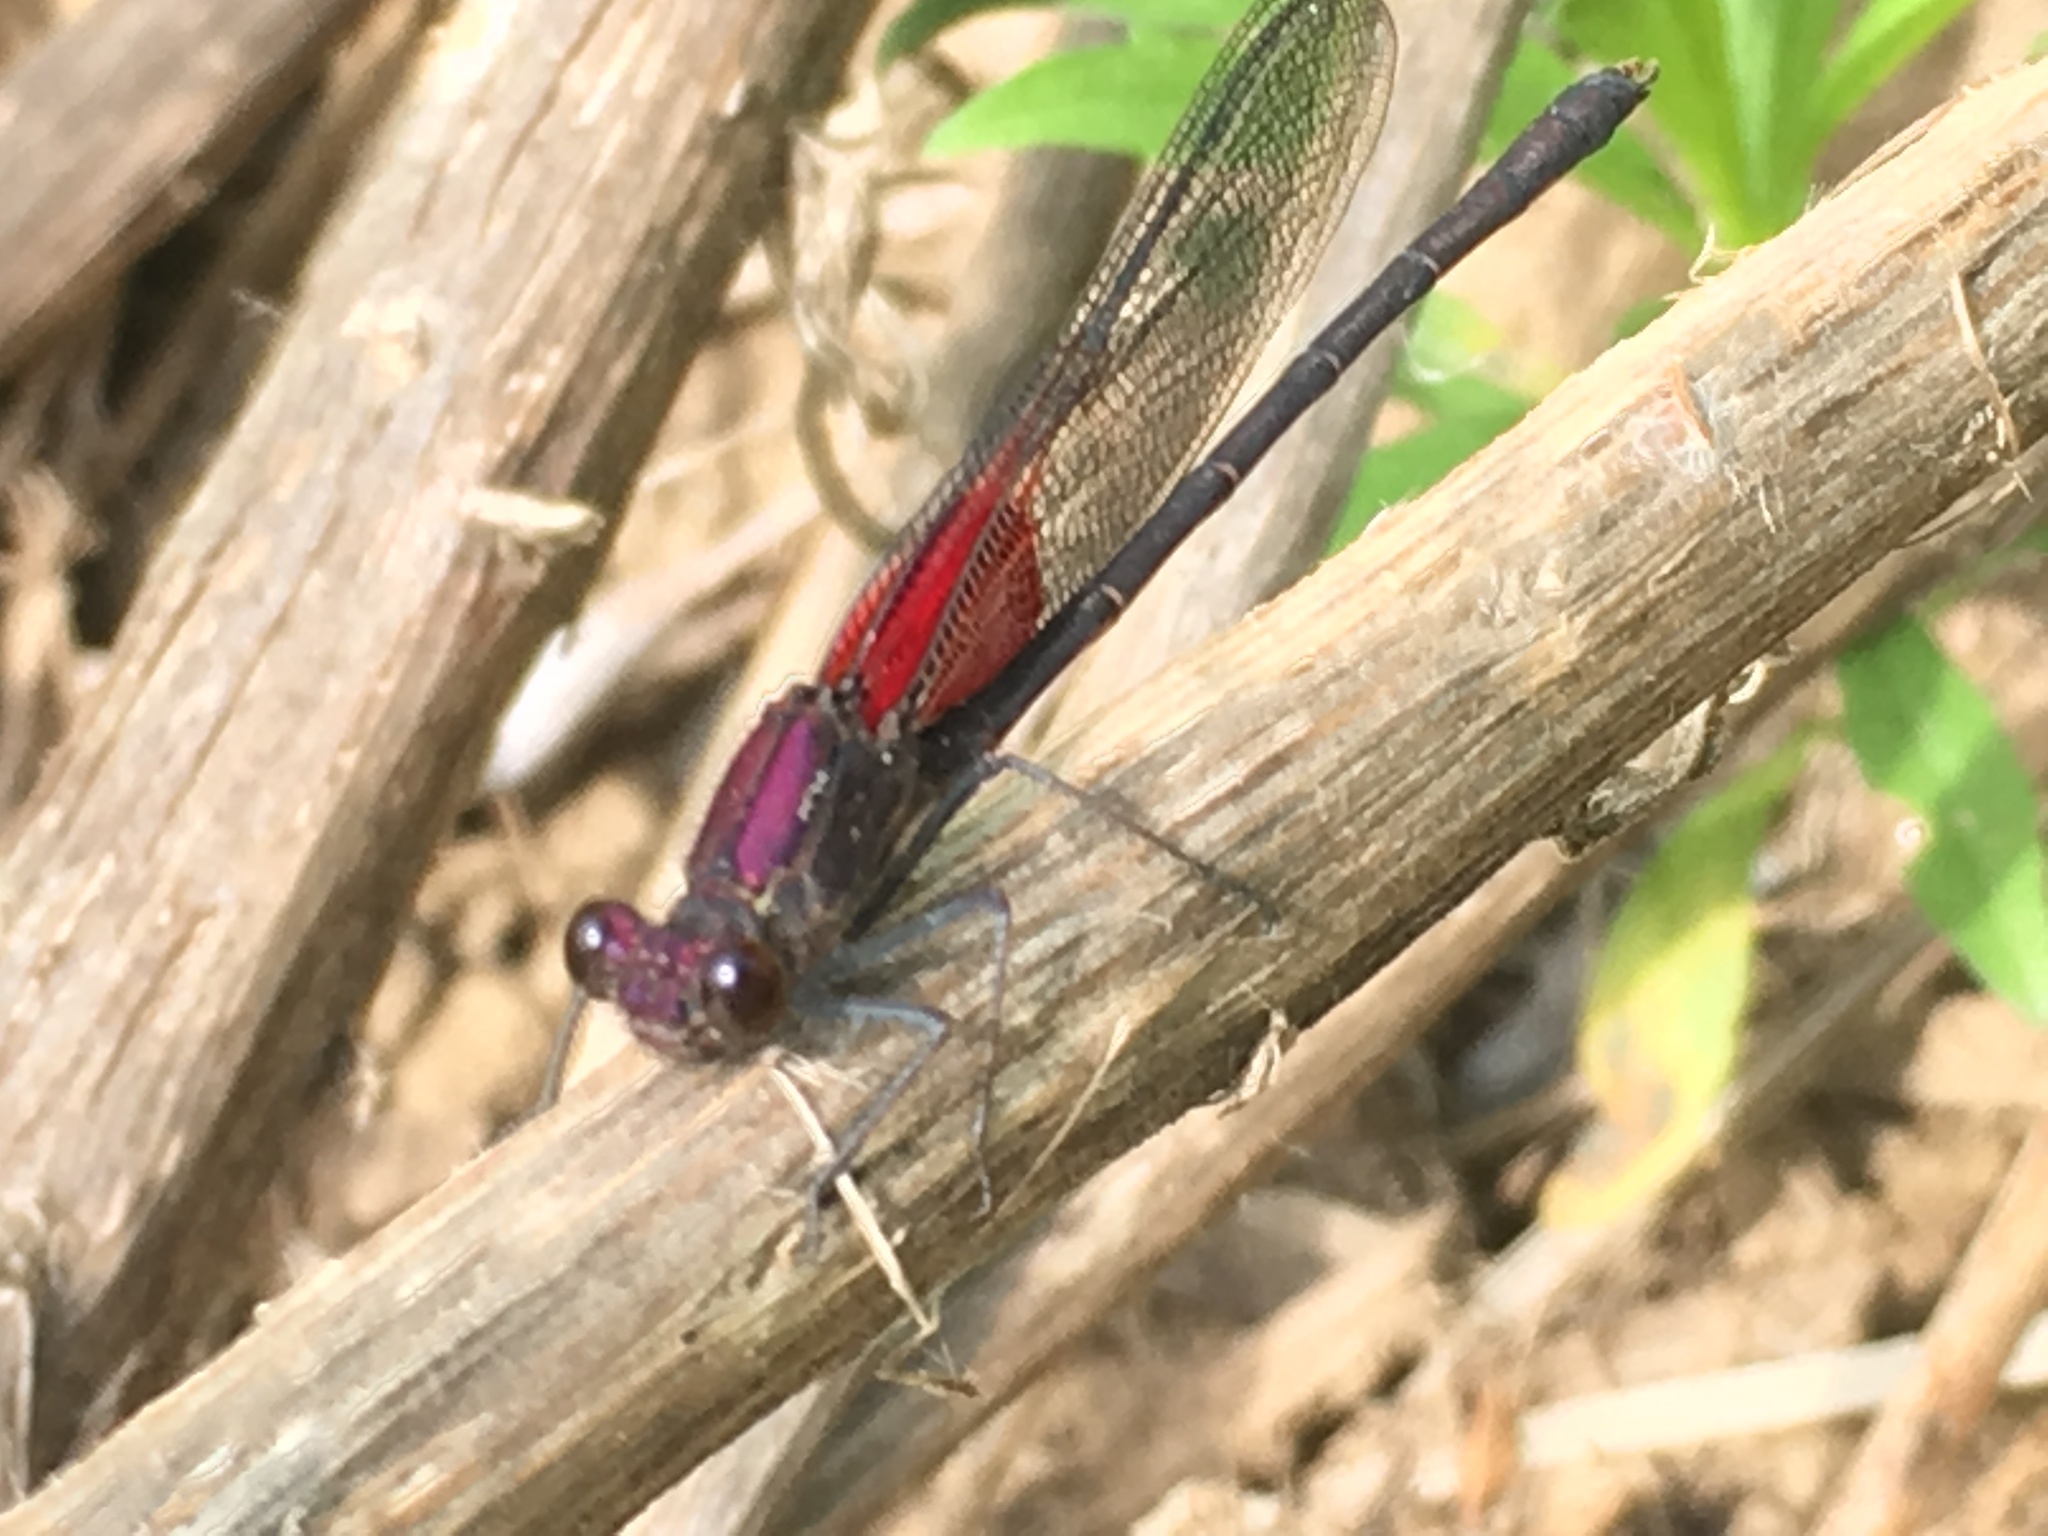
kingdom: Animalia
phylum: Arthropoda
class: Insecta
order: Odonata
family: Calopterygidae
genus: Hetaerina
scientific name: Hetaerina americana
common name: American rubyspot
